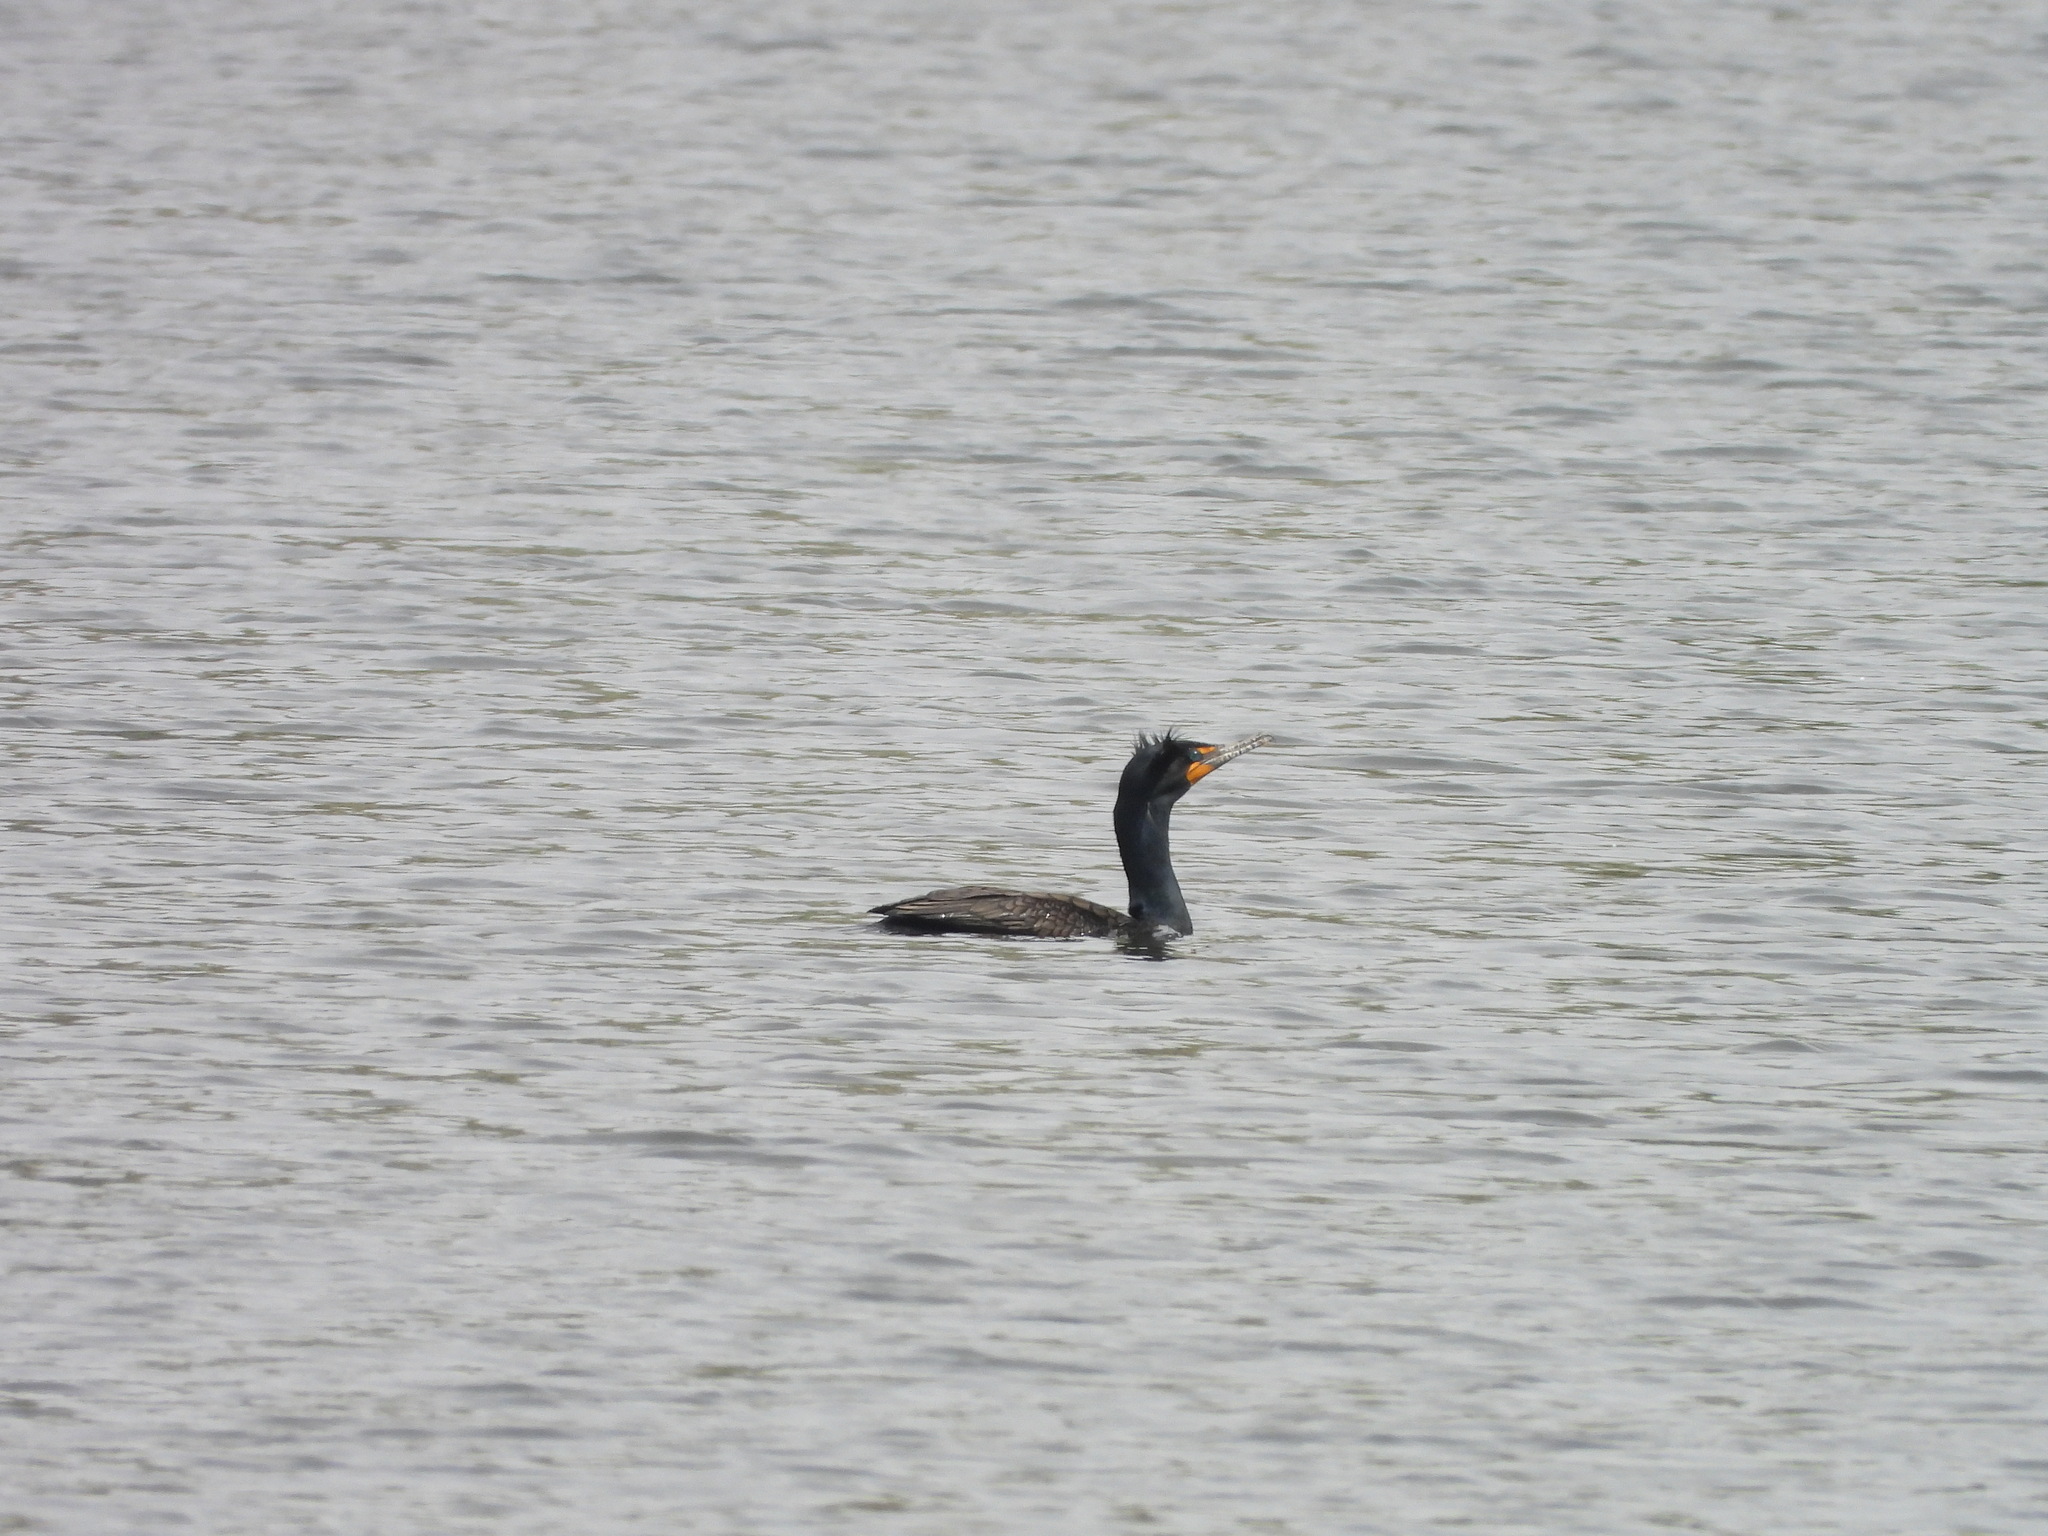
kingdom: Animalia
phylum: Chordata
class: Aves
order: Suliformes
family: Phalacrocoracidae
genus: Phalacrocorax
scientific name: Phalacrocorax auritus
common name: Double-crested cormorant
